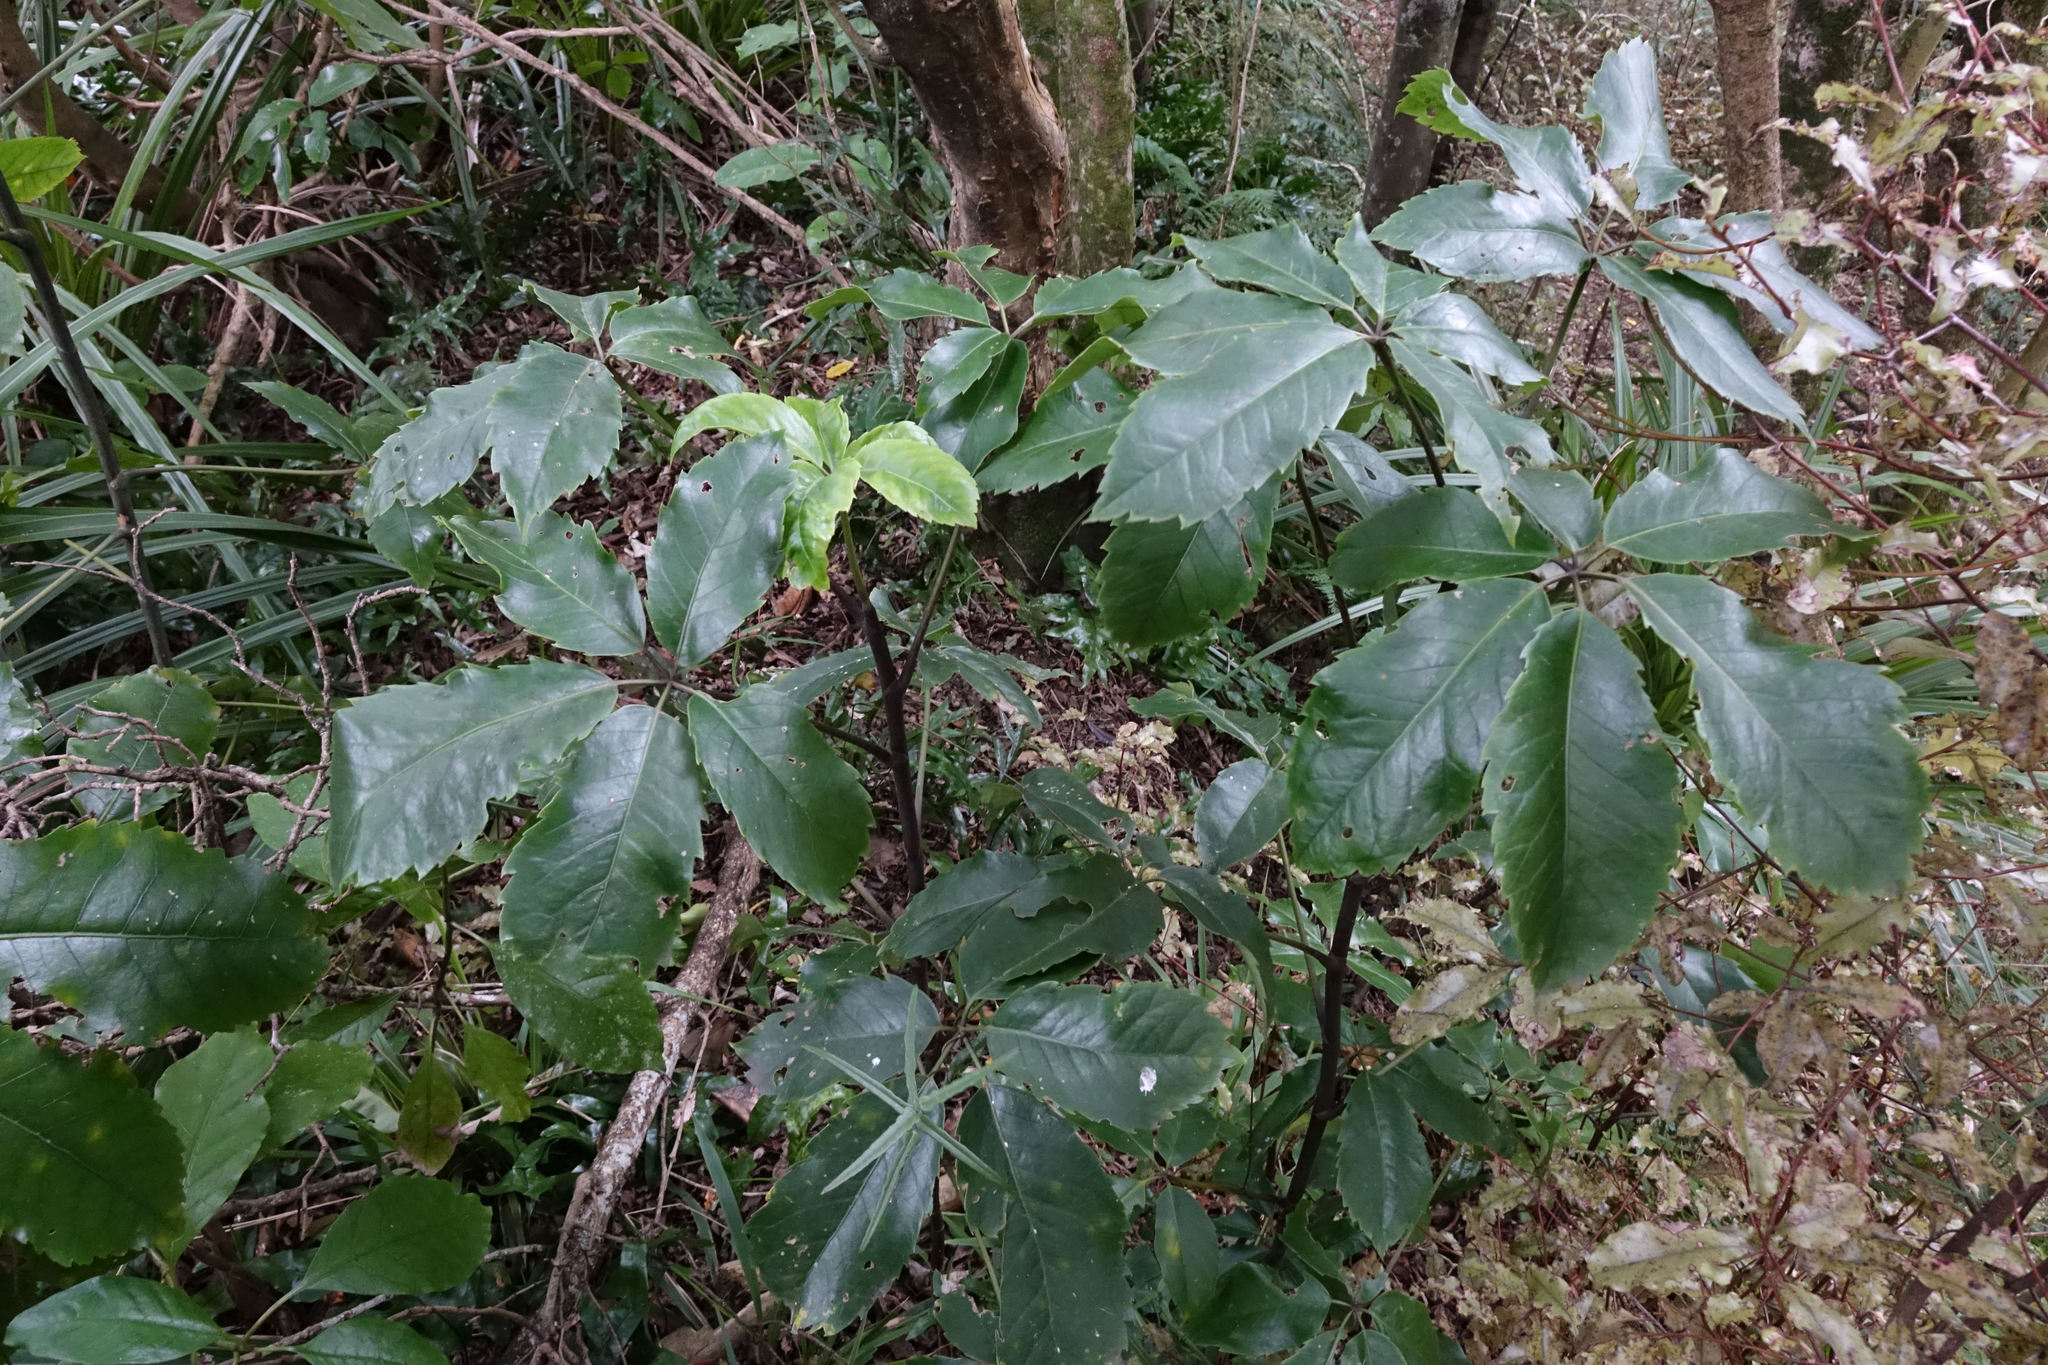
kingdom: Plantae
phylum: Tracheophyta
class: Magnoliopsida
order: Apiales
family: Araliaceae
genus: Neopanax
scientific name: Neopanax arboreus
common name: Five-fingers
